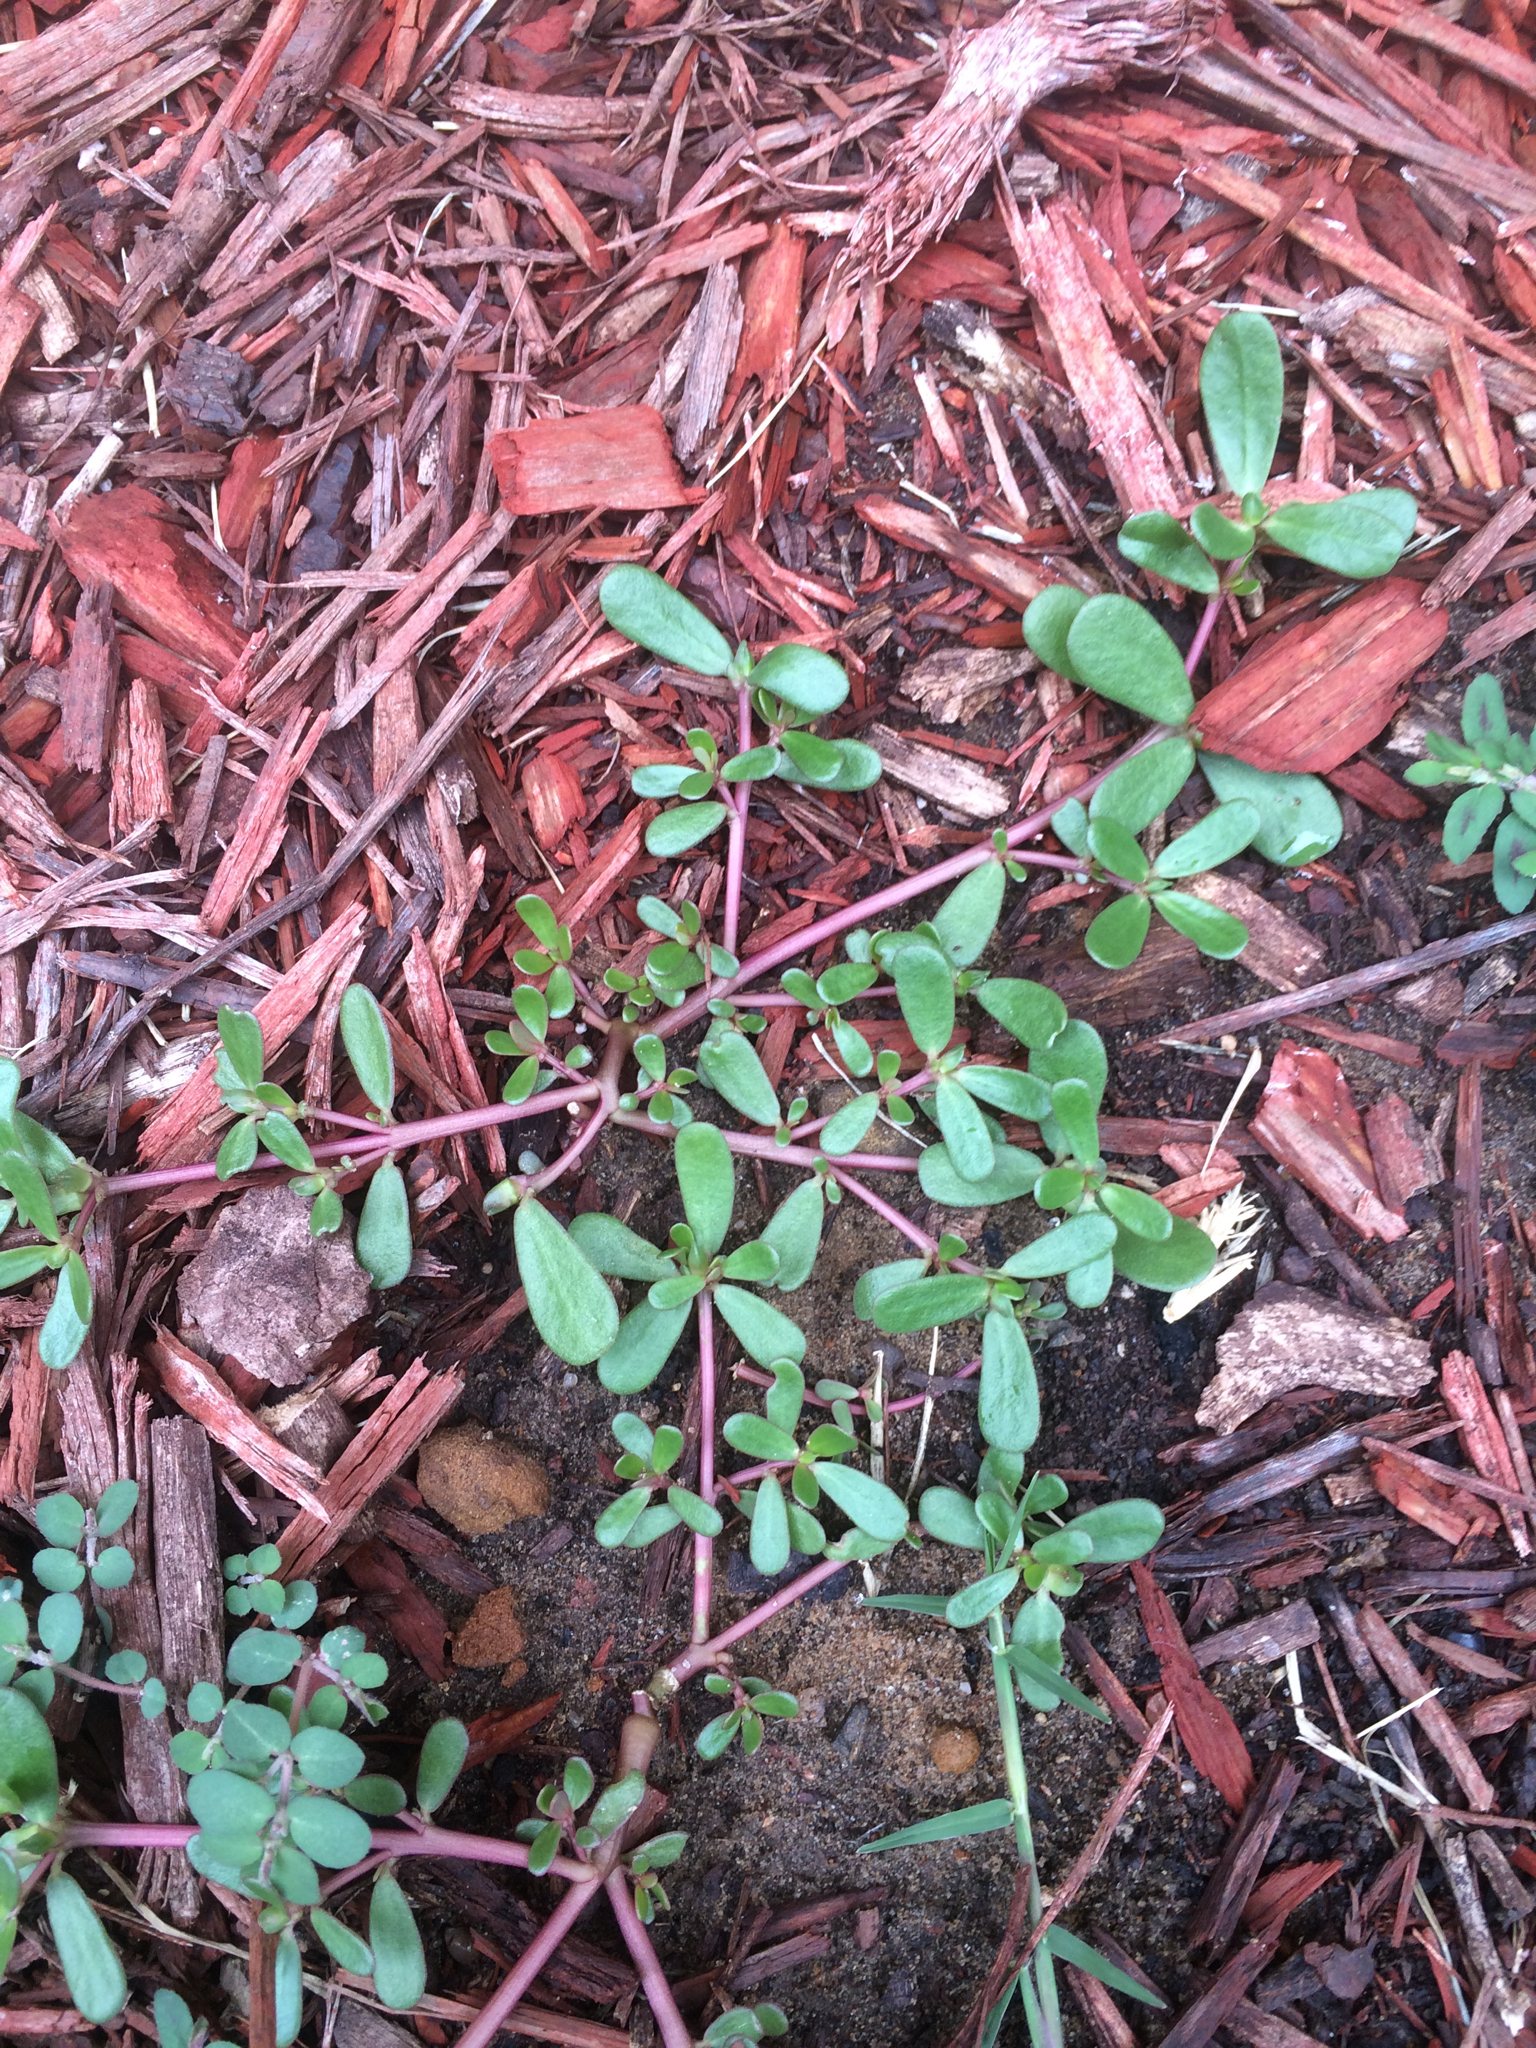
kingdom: Plantae
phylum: Tracheophyta
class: Magnoliopsida
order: Caryophyllales
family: Portulacaceae
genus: Portulaca
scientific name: Portulaca oleracea
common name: Common purslane
